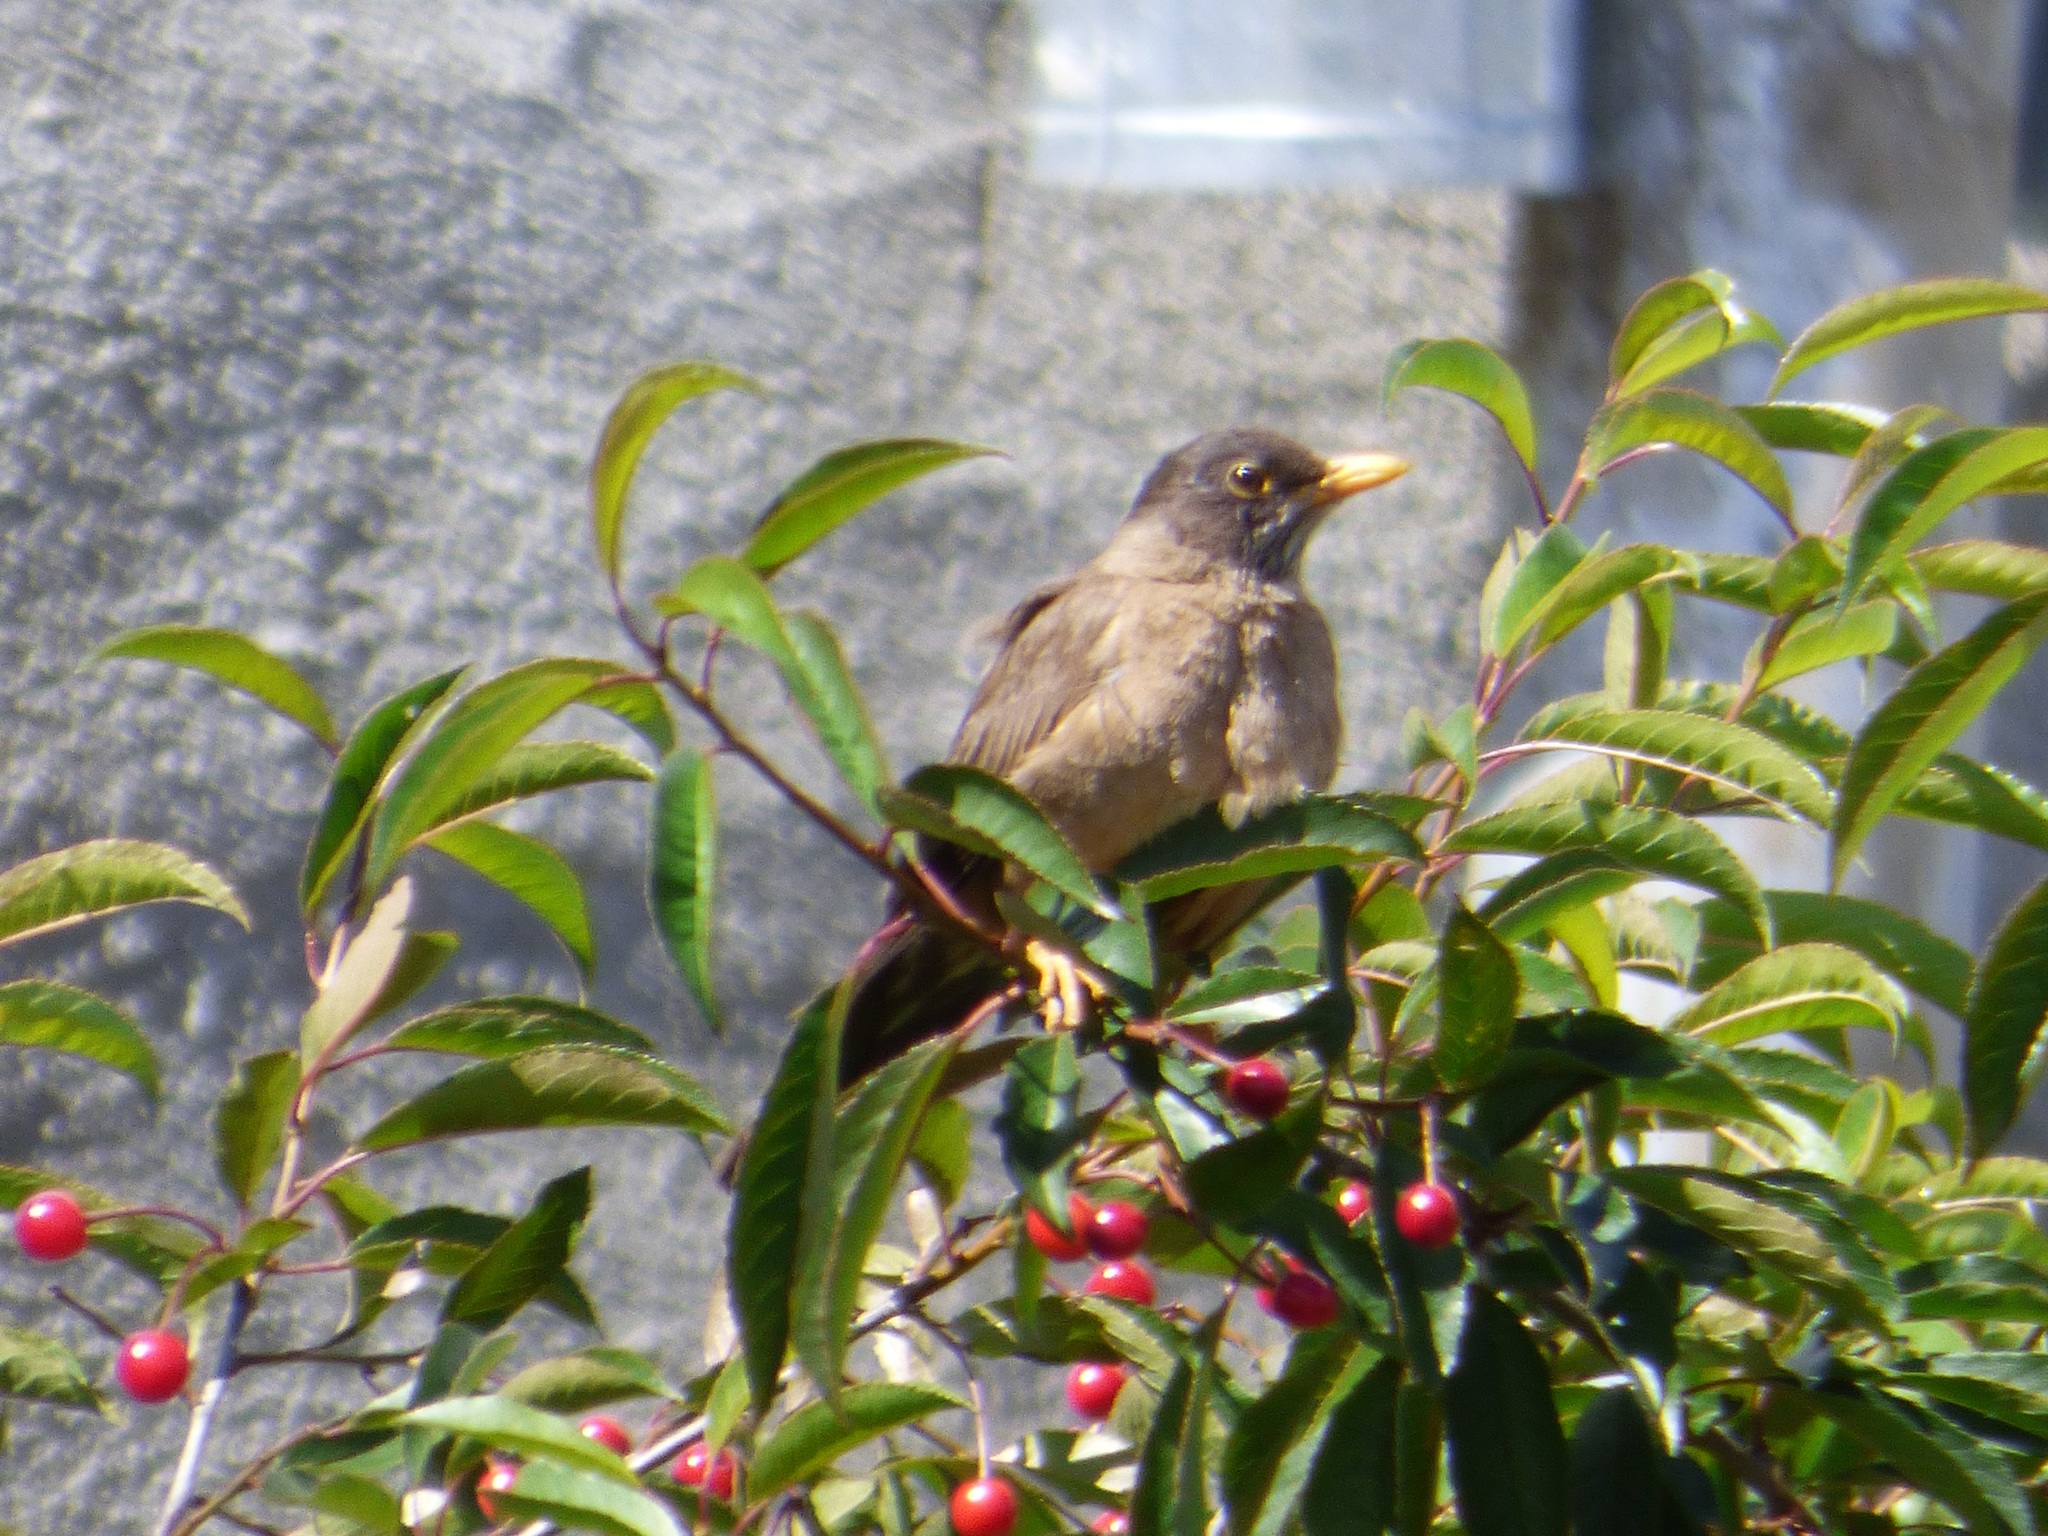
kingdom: Animalia
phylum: Chordata
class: Aves
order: Passeriformes
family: Turdidae
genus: Turdus
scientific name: Turdus falcklandii
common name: Austral thrush
